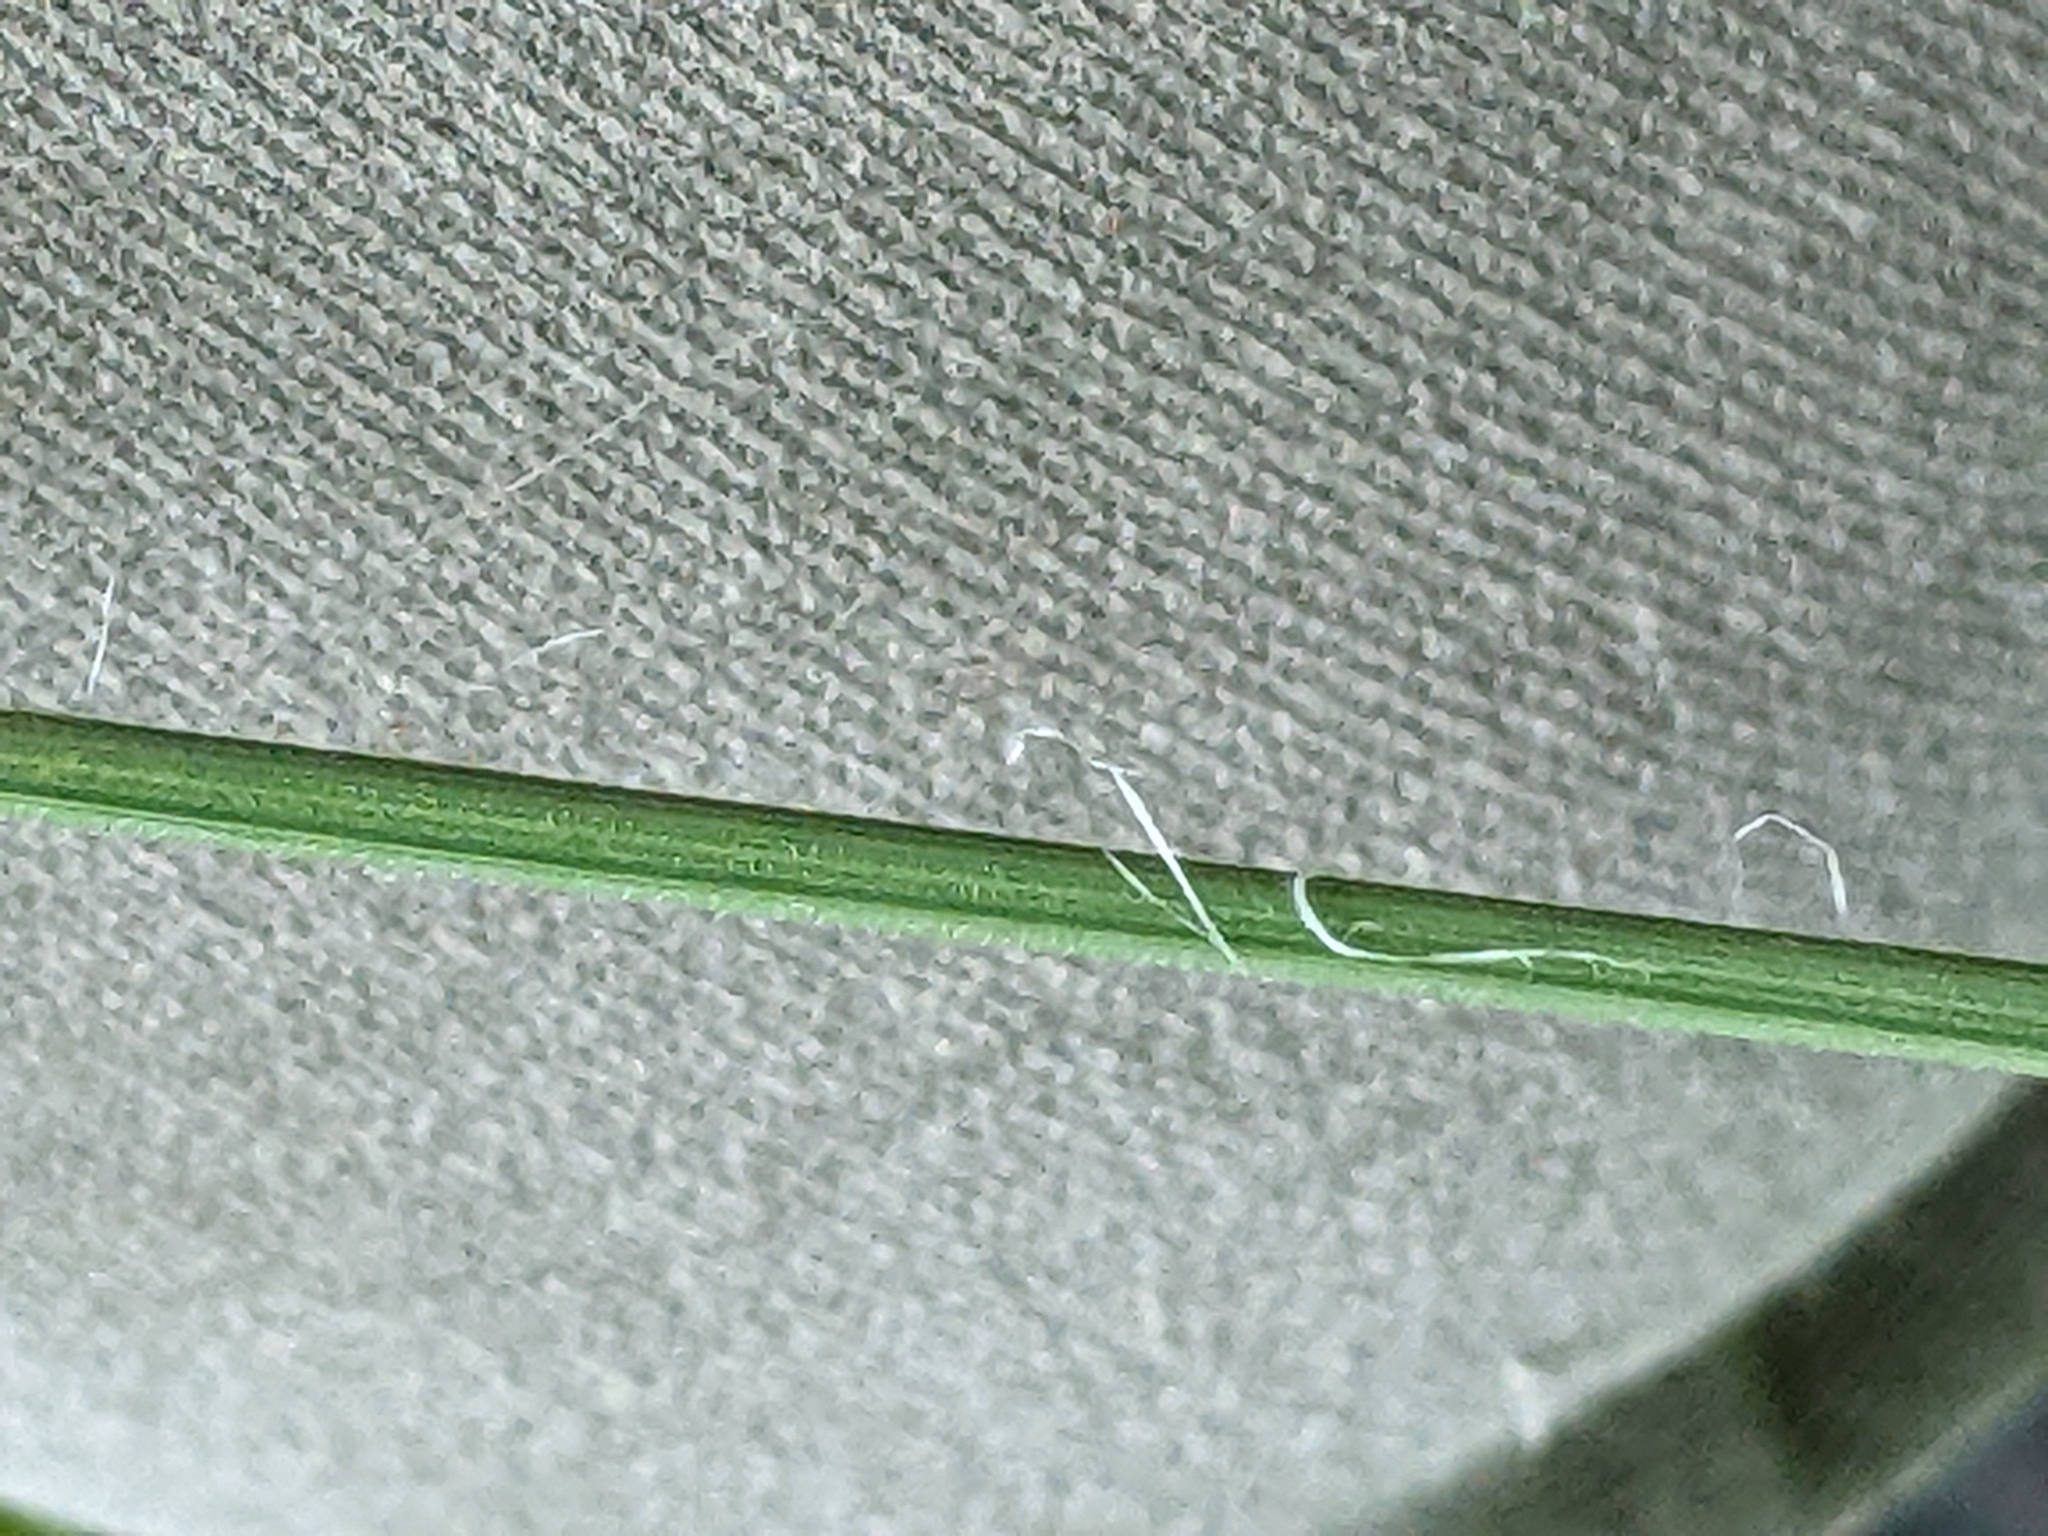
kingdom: Plantae
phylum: Tracheophyta
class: Liliopsida
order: Poales
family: Poaceae
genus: Dactylis
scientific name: Dactylis glomerata
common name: Orchardgrass
